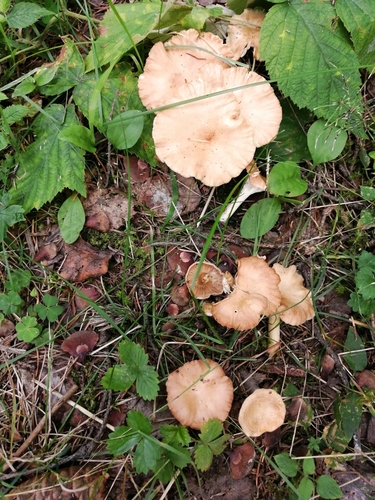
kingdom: Fungi
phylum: Basidiomycota
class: Agaricomycetes
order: Agaricales
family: Tricholomataceae
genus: Infundibulicybe
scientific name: Infundibulicybe gibba
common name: Common funnel
